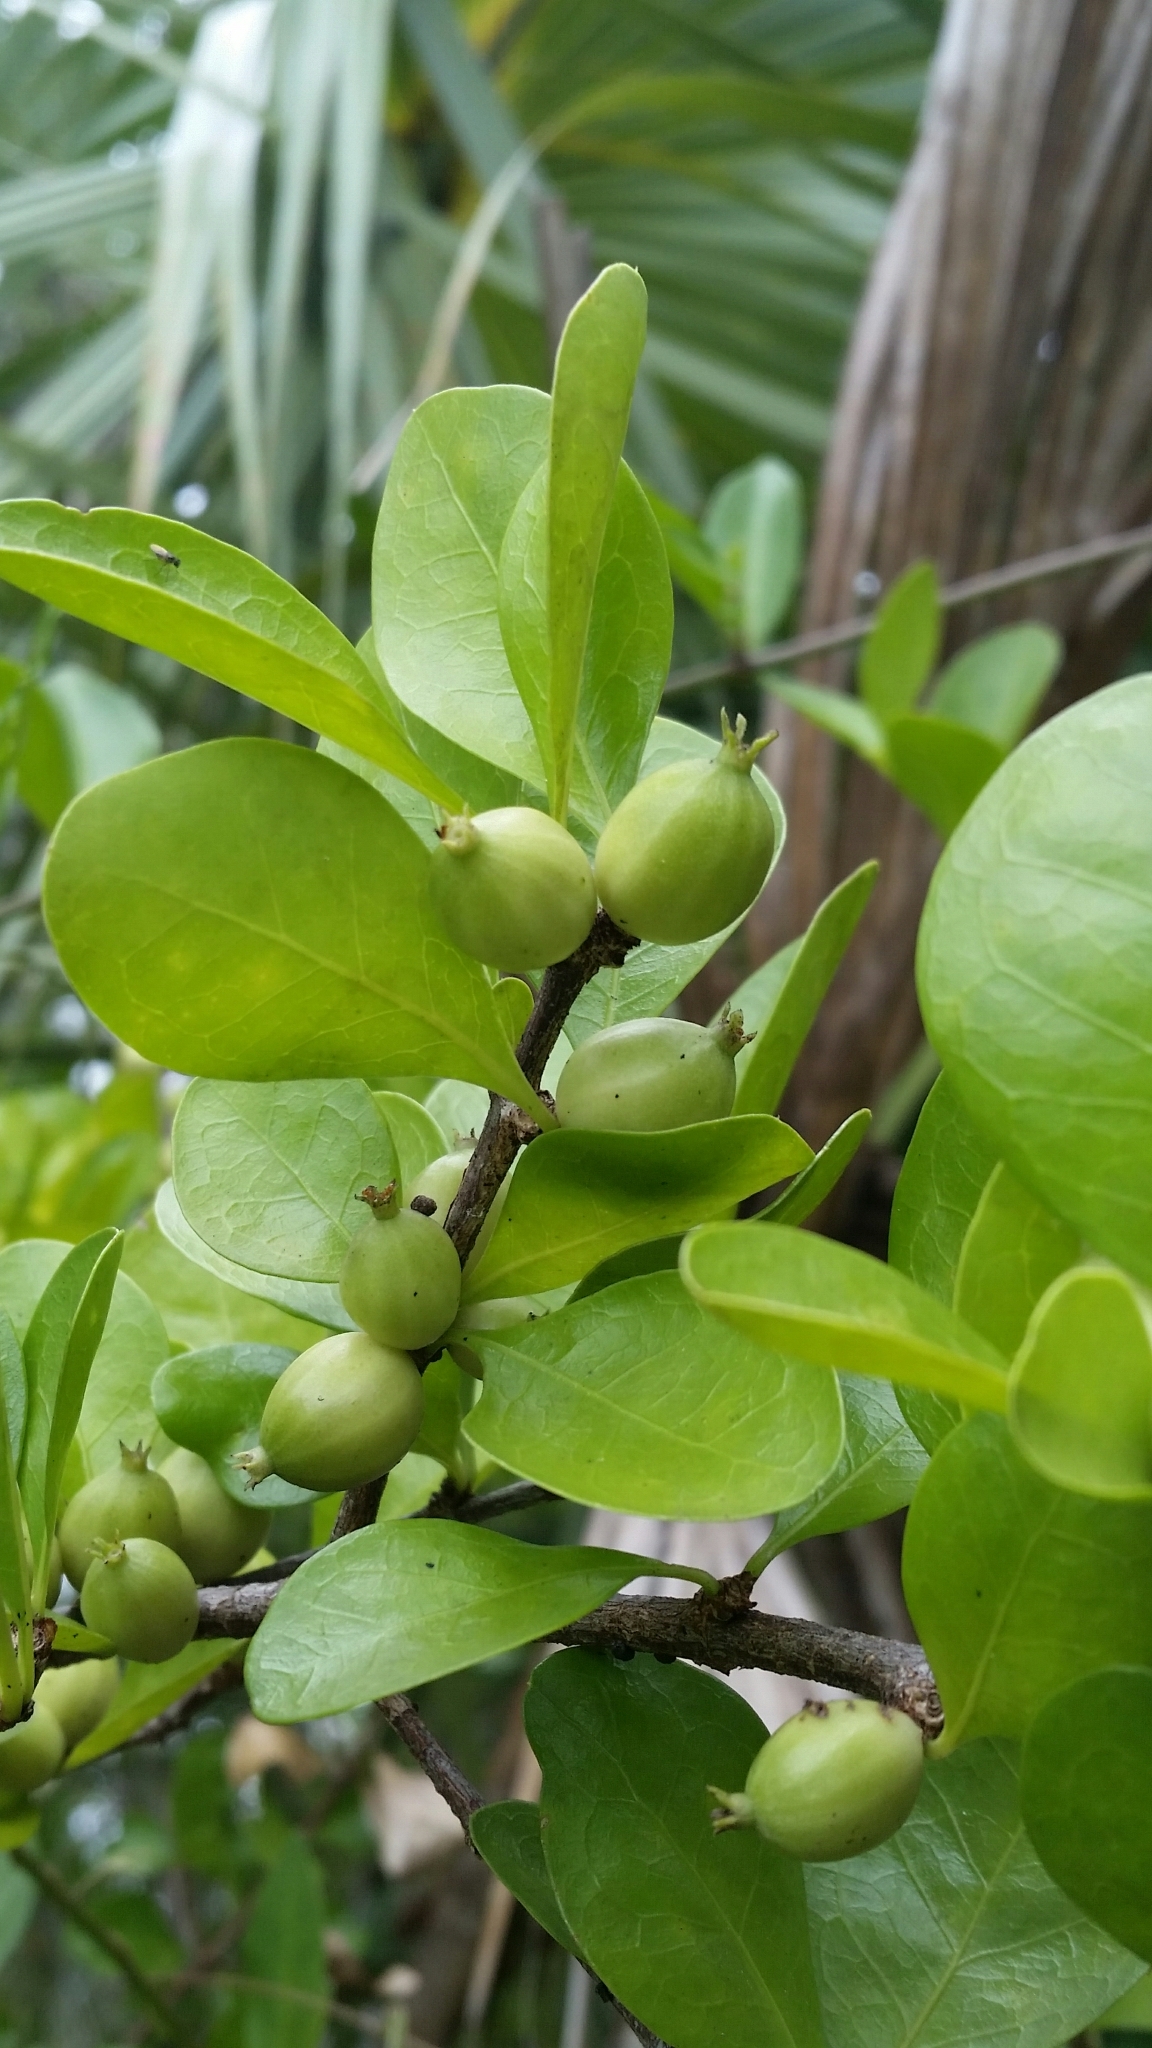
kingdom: Plantae
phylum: Tracheophyta
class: Magnoliopsida
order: Gentianales
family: Rubiaceae
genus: Randia
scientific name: Randia aculeata
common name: Inkberry
